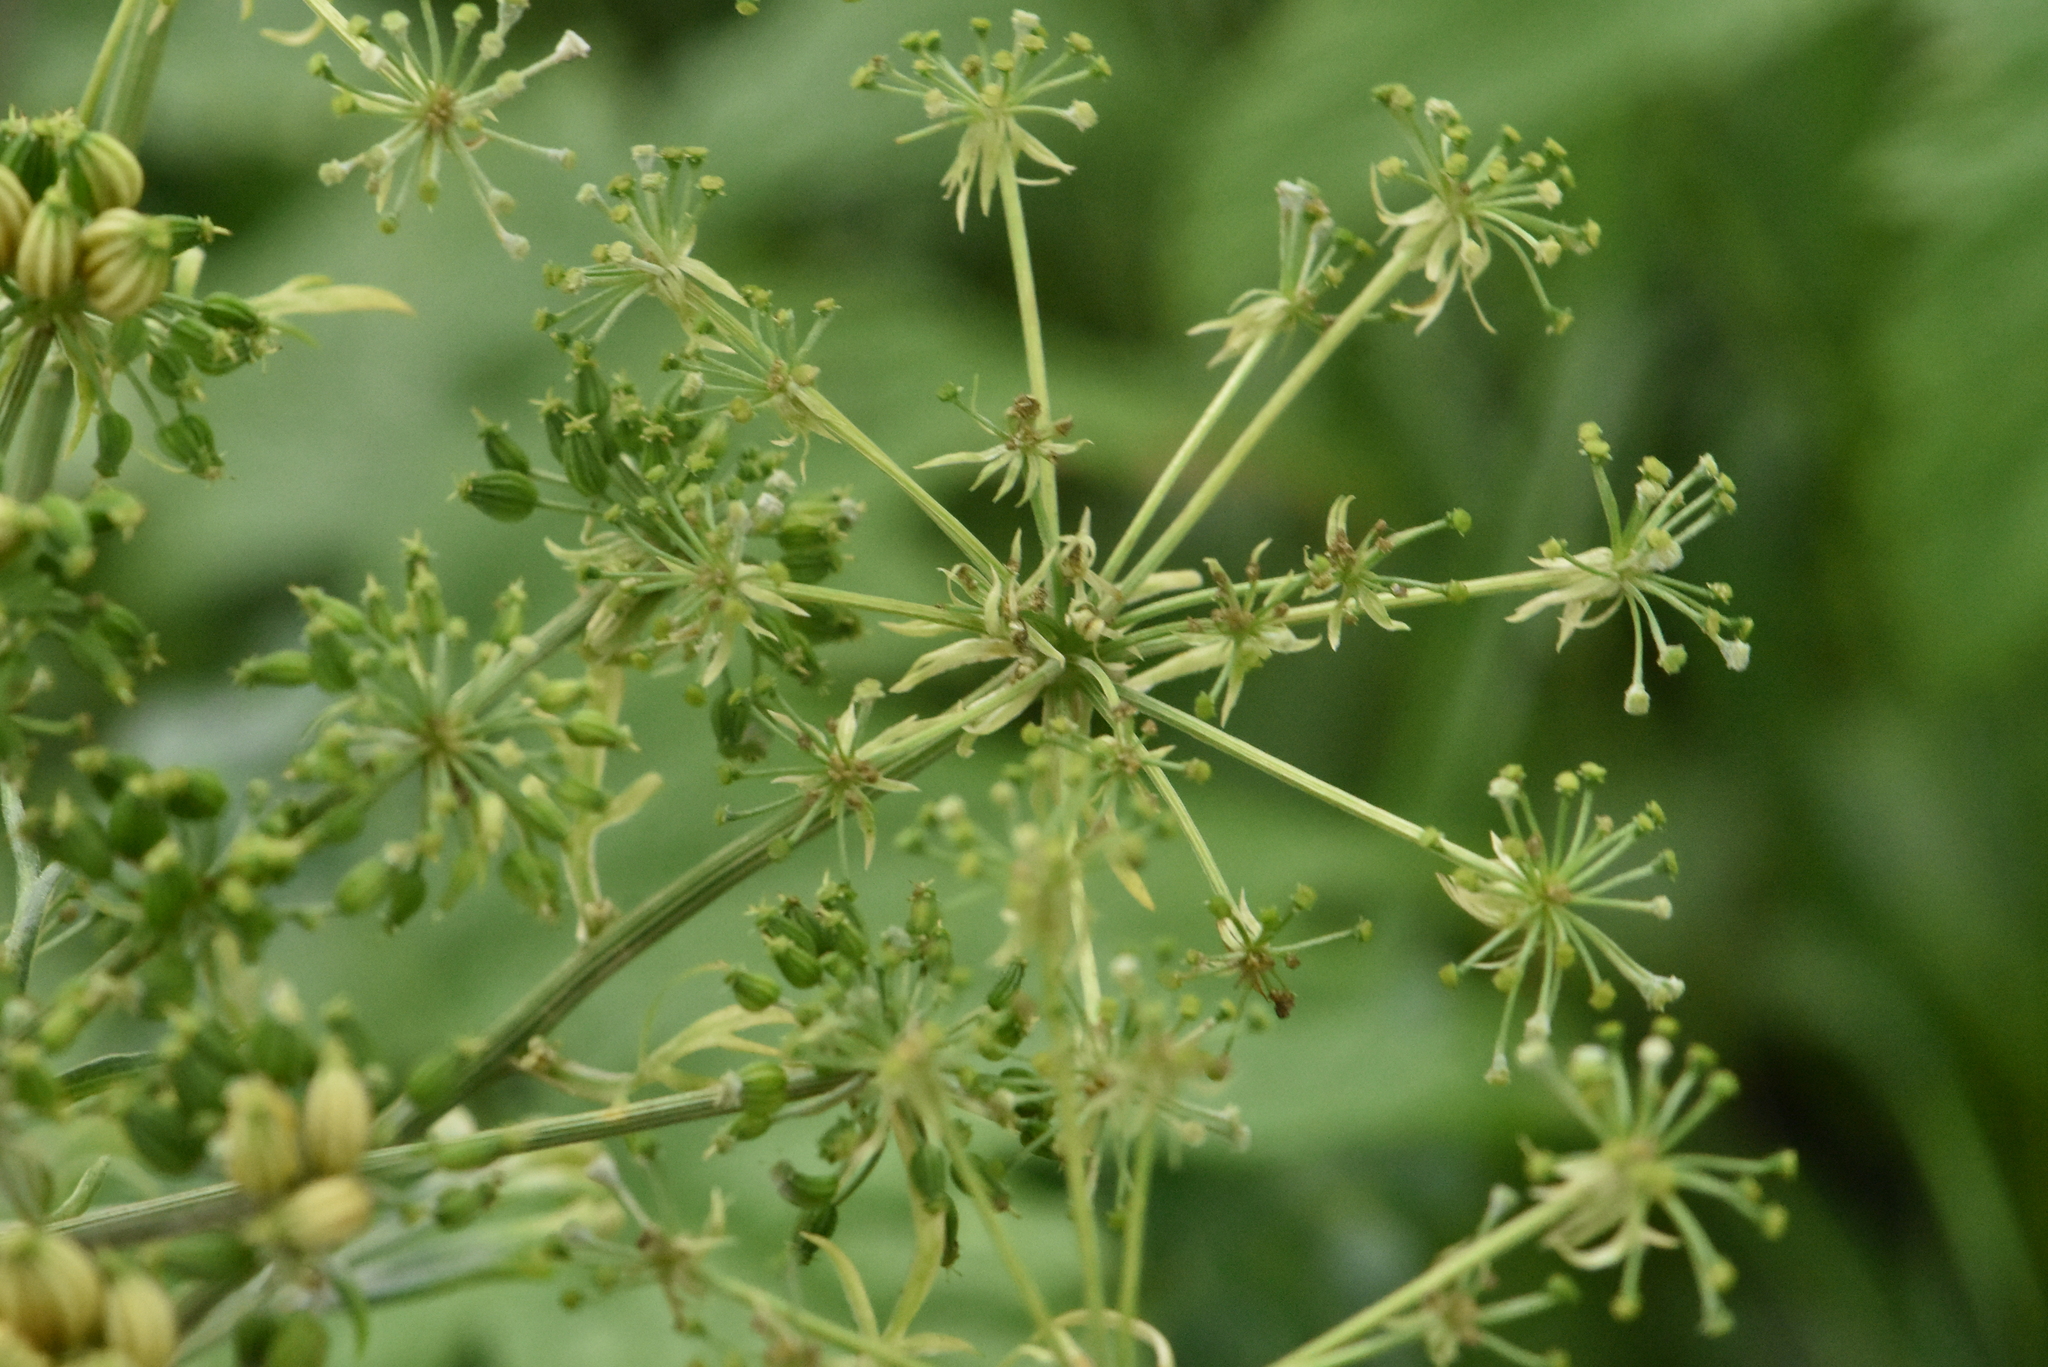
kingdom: Plantae
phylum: Tracheophyta
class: Magnoliopsida
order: Apiales
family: Apiaceae
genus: Pleurospermum
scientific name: Pleurospermum uralense
